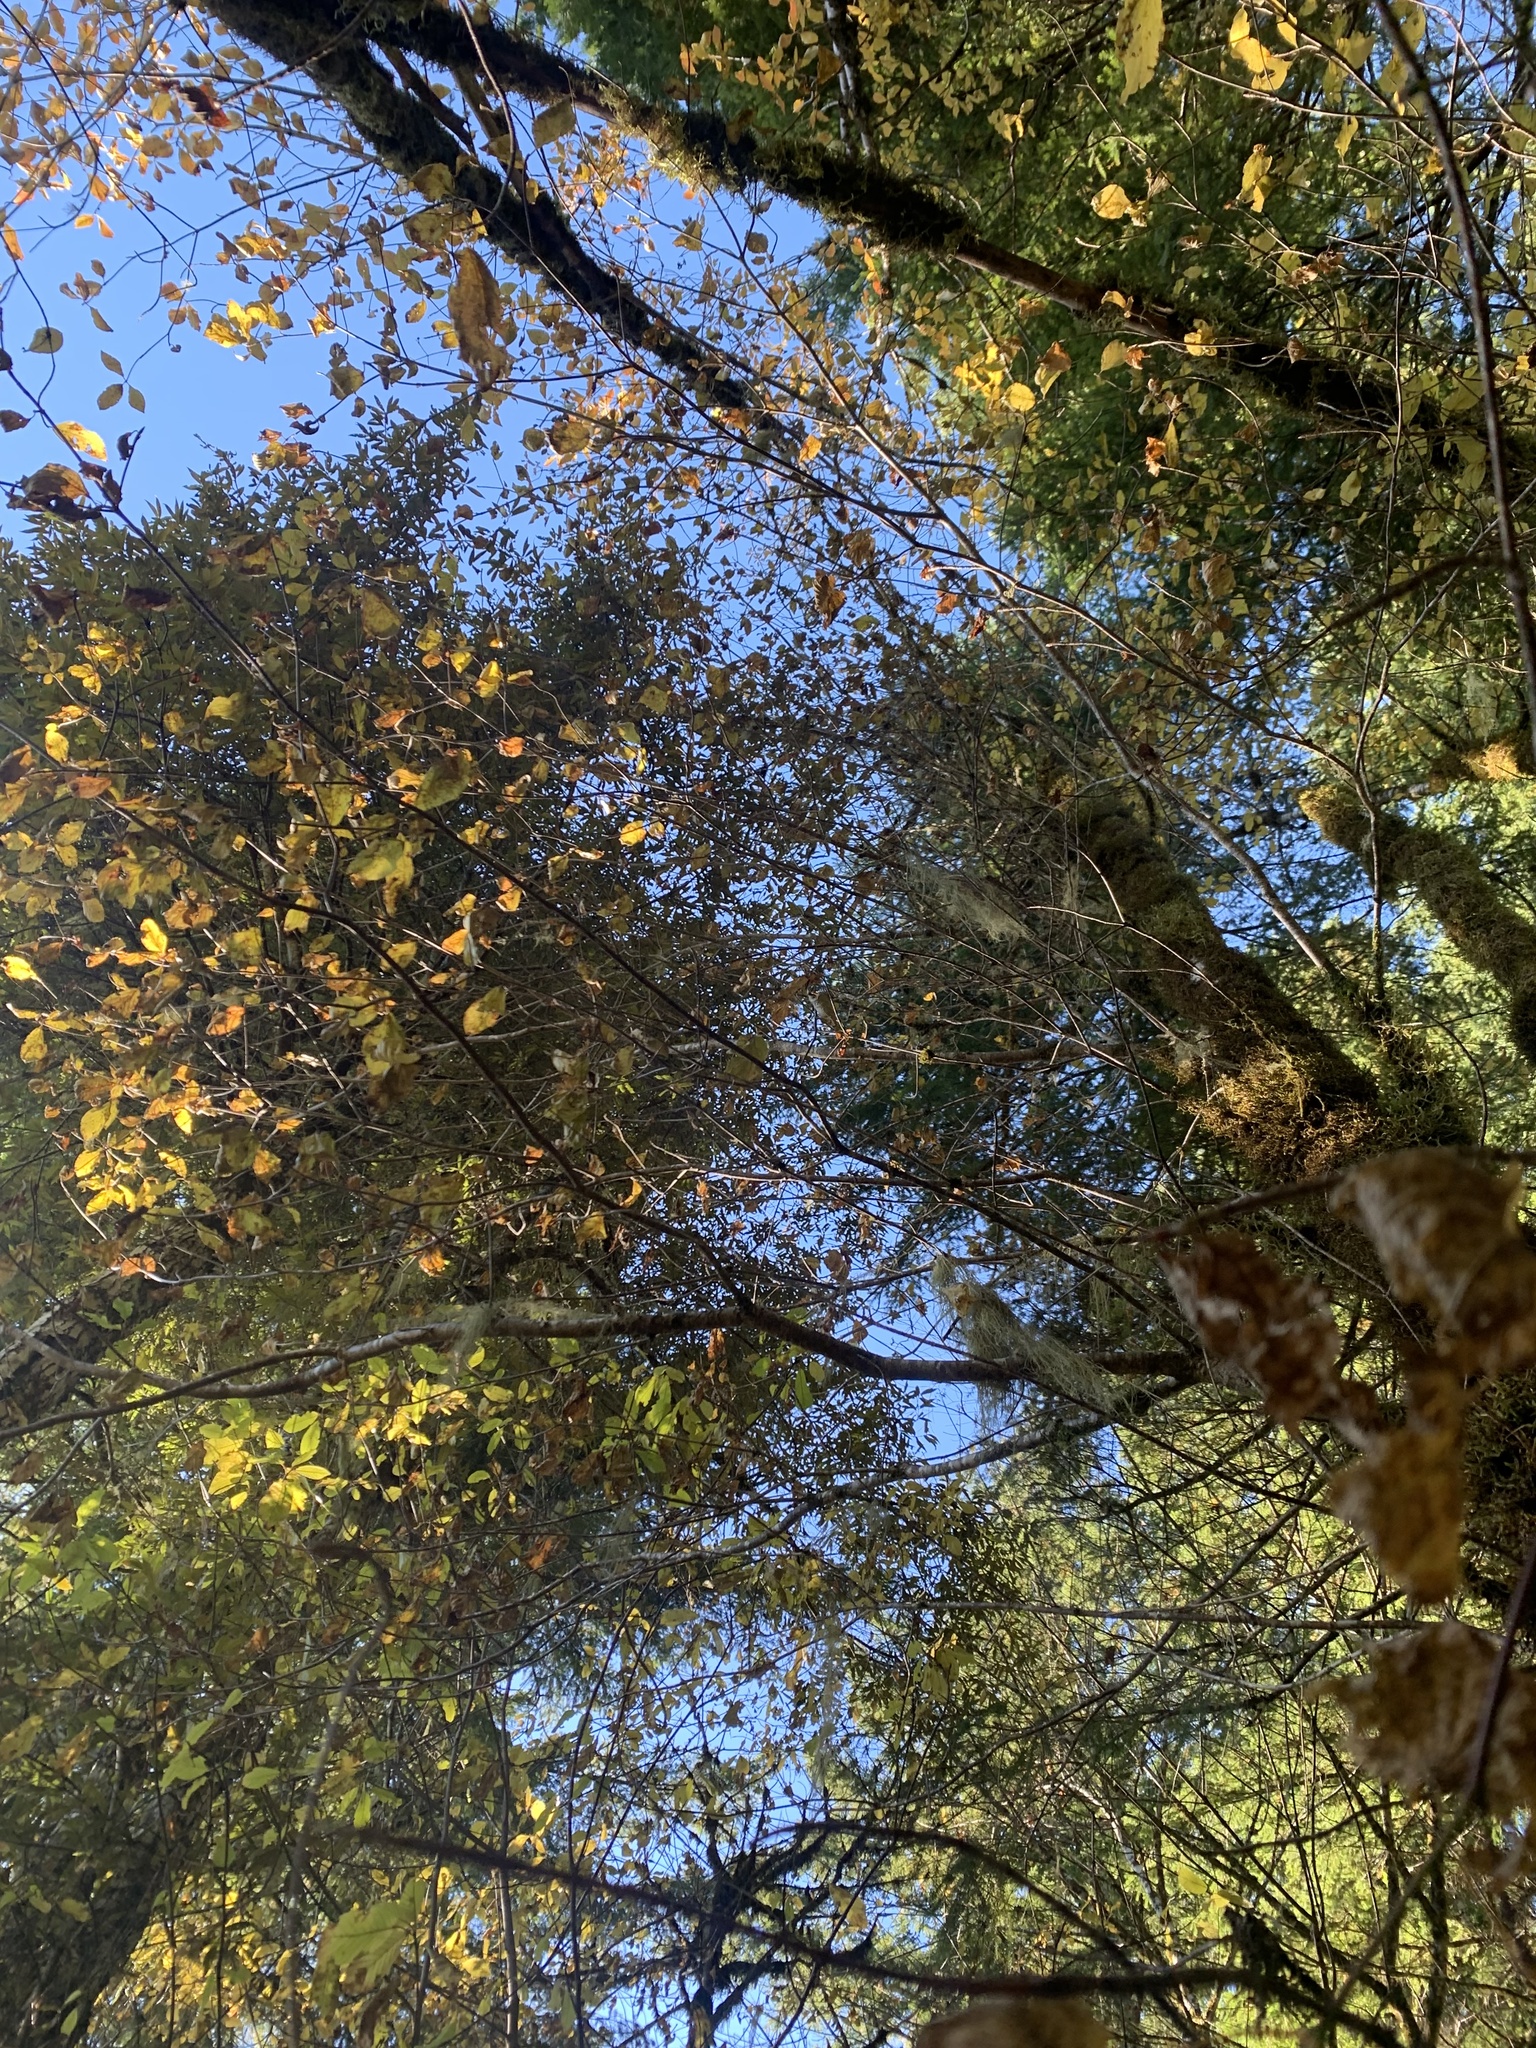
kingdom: Plantae
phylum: Tracheophyta
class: Magnoliopsida
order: Cornales
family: Cornaceae
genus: Cornus
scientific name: Cornus nuttallii
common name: Pacific dogwood
